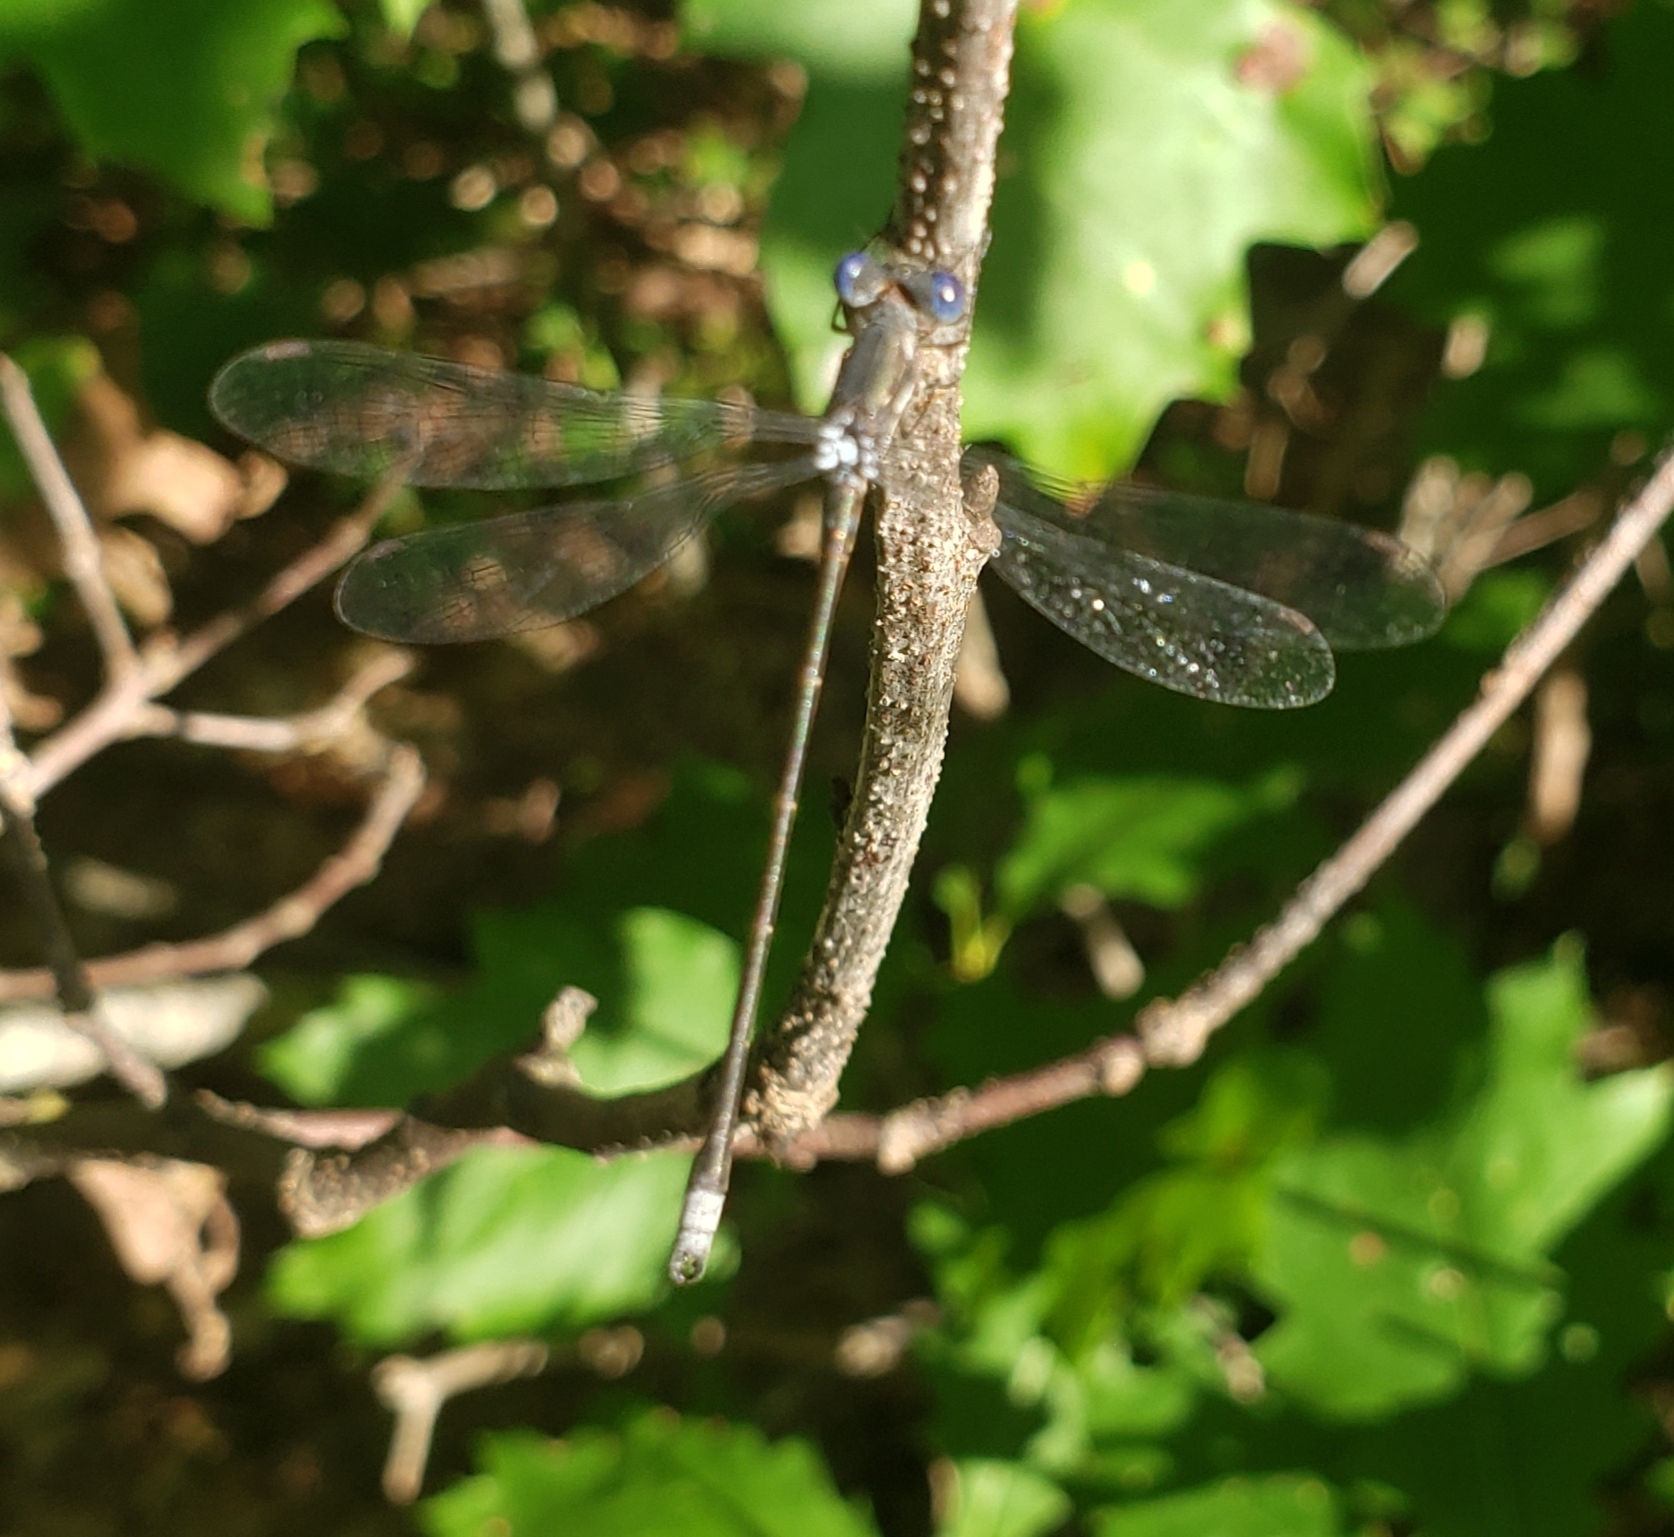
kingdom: Animalia
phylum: Arthropoda
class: Insecta
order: Odonata
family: Lestidae
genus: Lestes
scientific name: Lestes congener
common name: Spotted spreadwing
